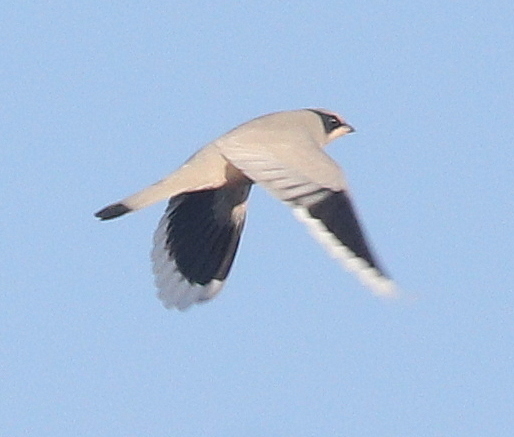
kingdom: Animalia
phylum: Chordata
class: Aves
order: Passeriformes
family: Hypocoliidae
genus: Hypocolius
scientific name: Hypocolius ampelinus
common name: Hypocolius
